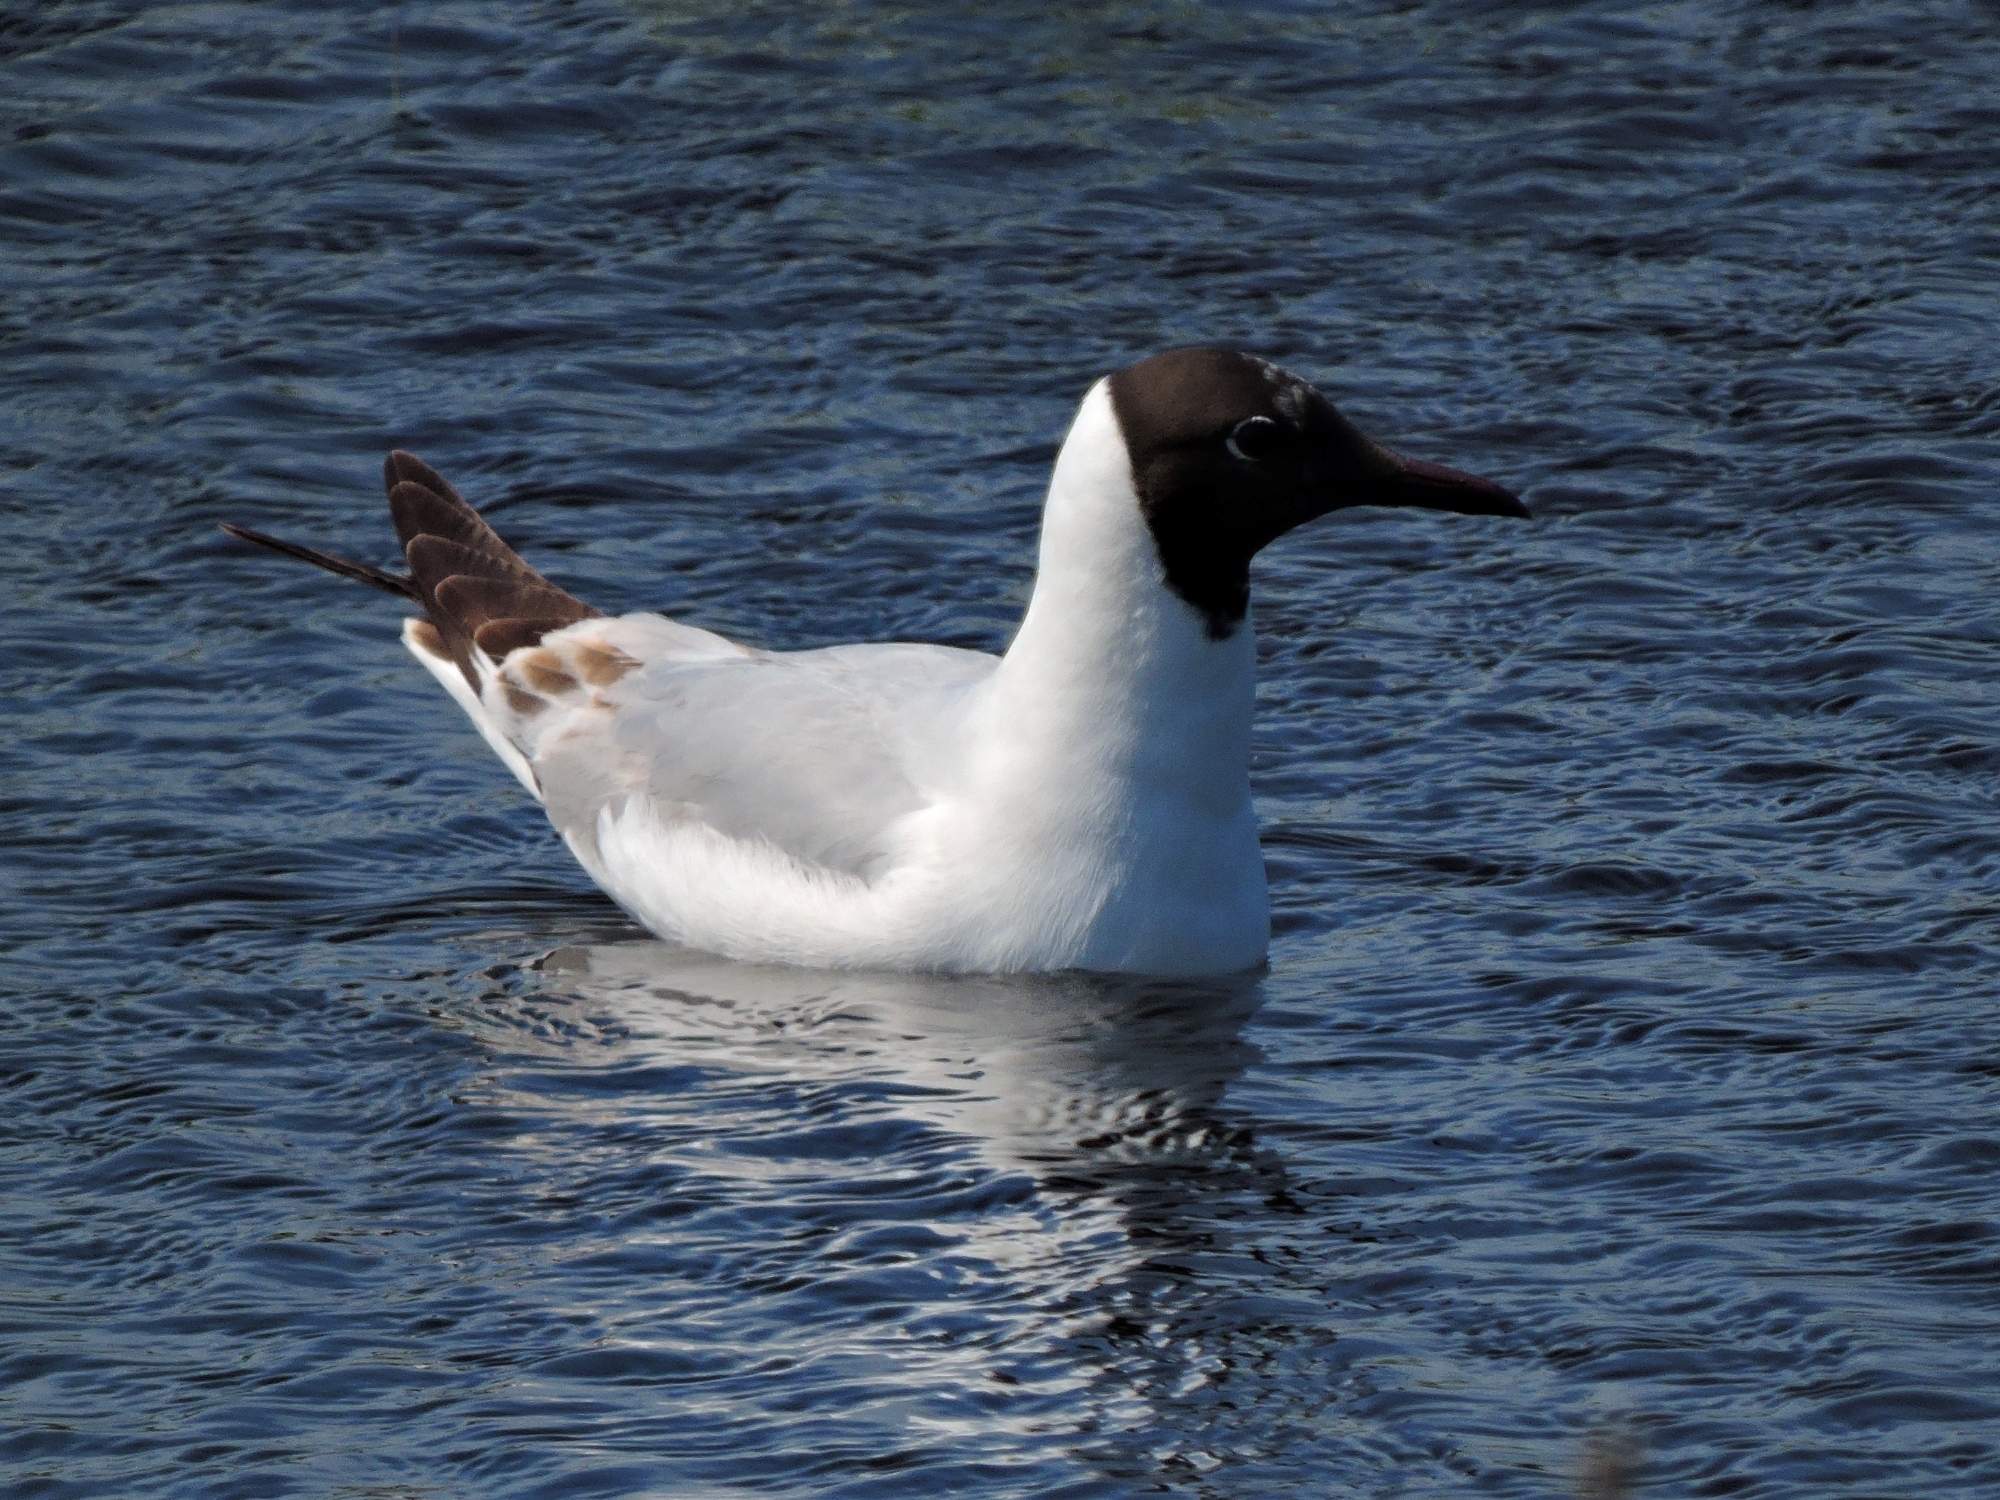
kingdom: Animalia
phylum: Chordata
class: Aves
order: Charadriiformes
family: Laridae
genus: Chroicocephalus
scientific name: Chroicocephalus ridibundus
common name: Black-headed gull
